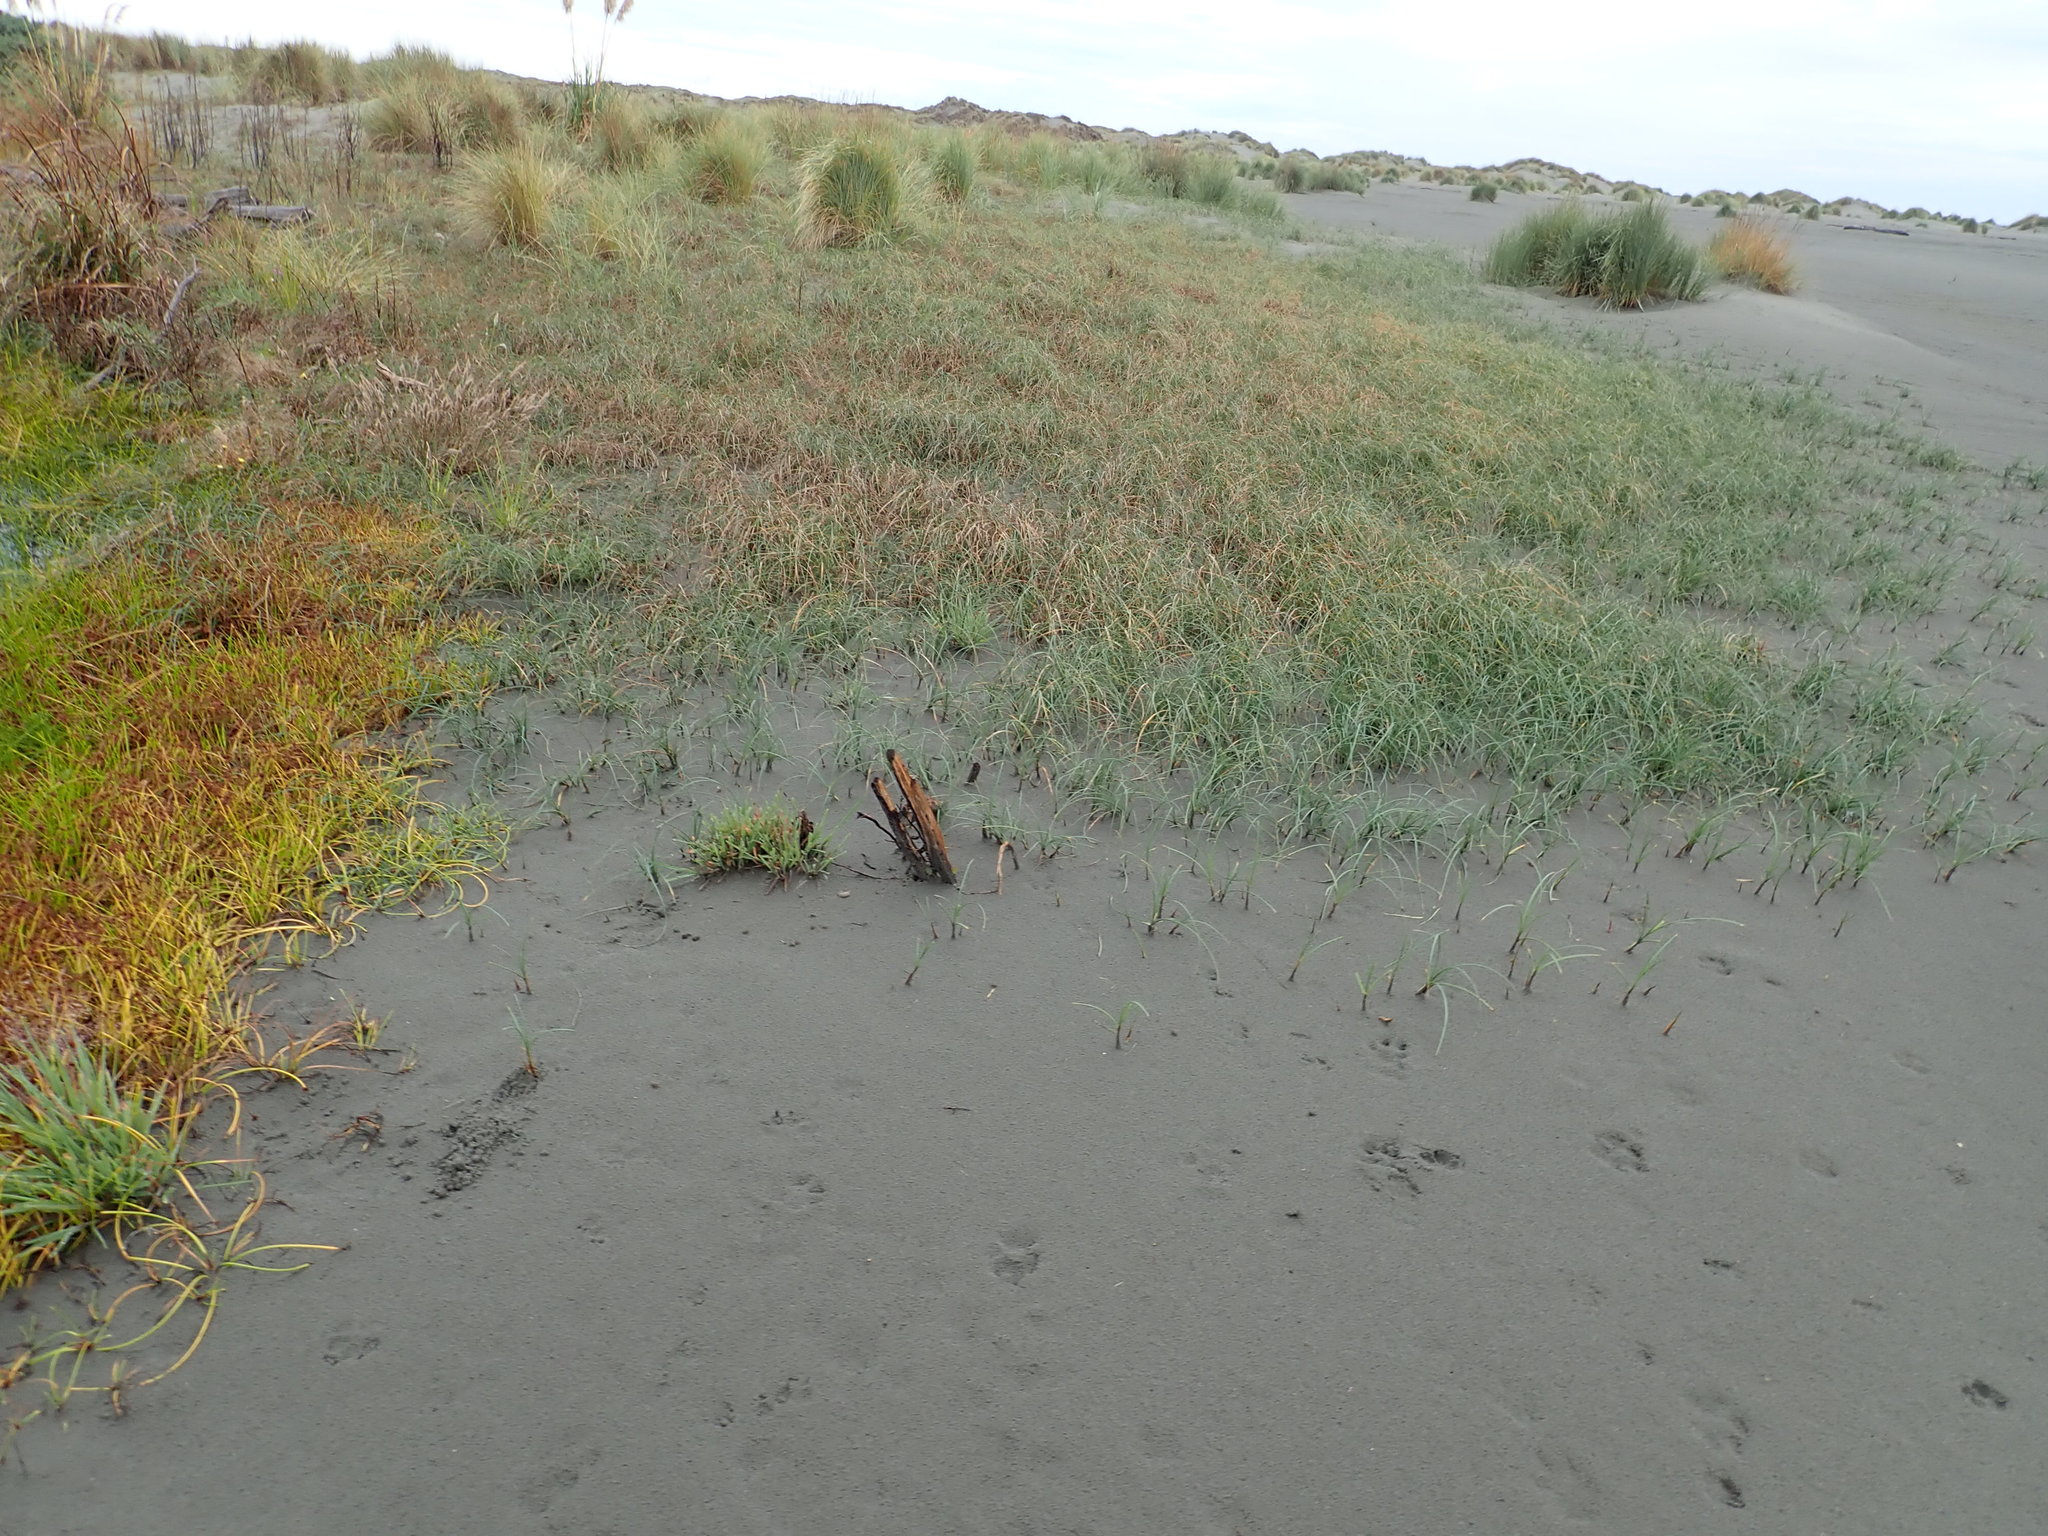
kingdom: Plantae
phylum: Tracheophyta
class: Liliopsida
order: Poales
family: Cyperaceae
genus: Carex
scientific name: Carex pumila
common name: Dwarf sedge
